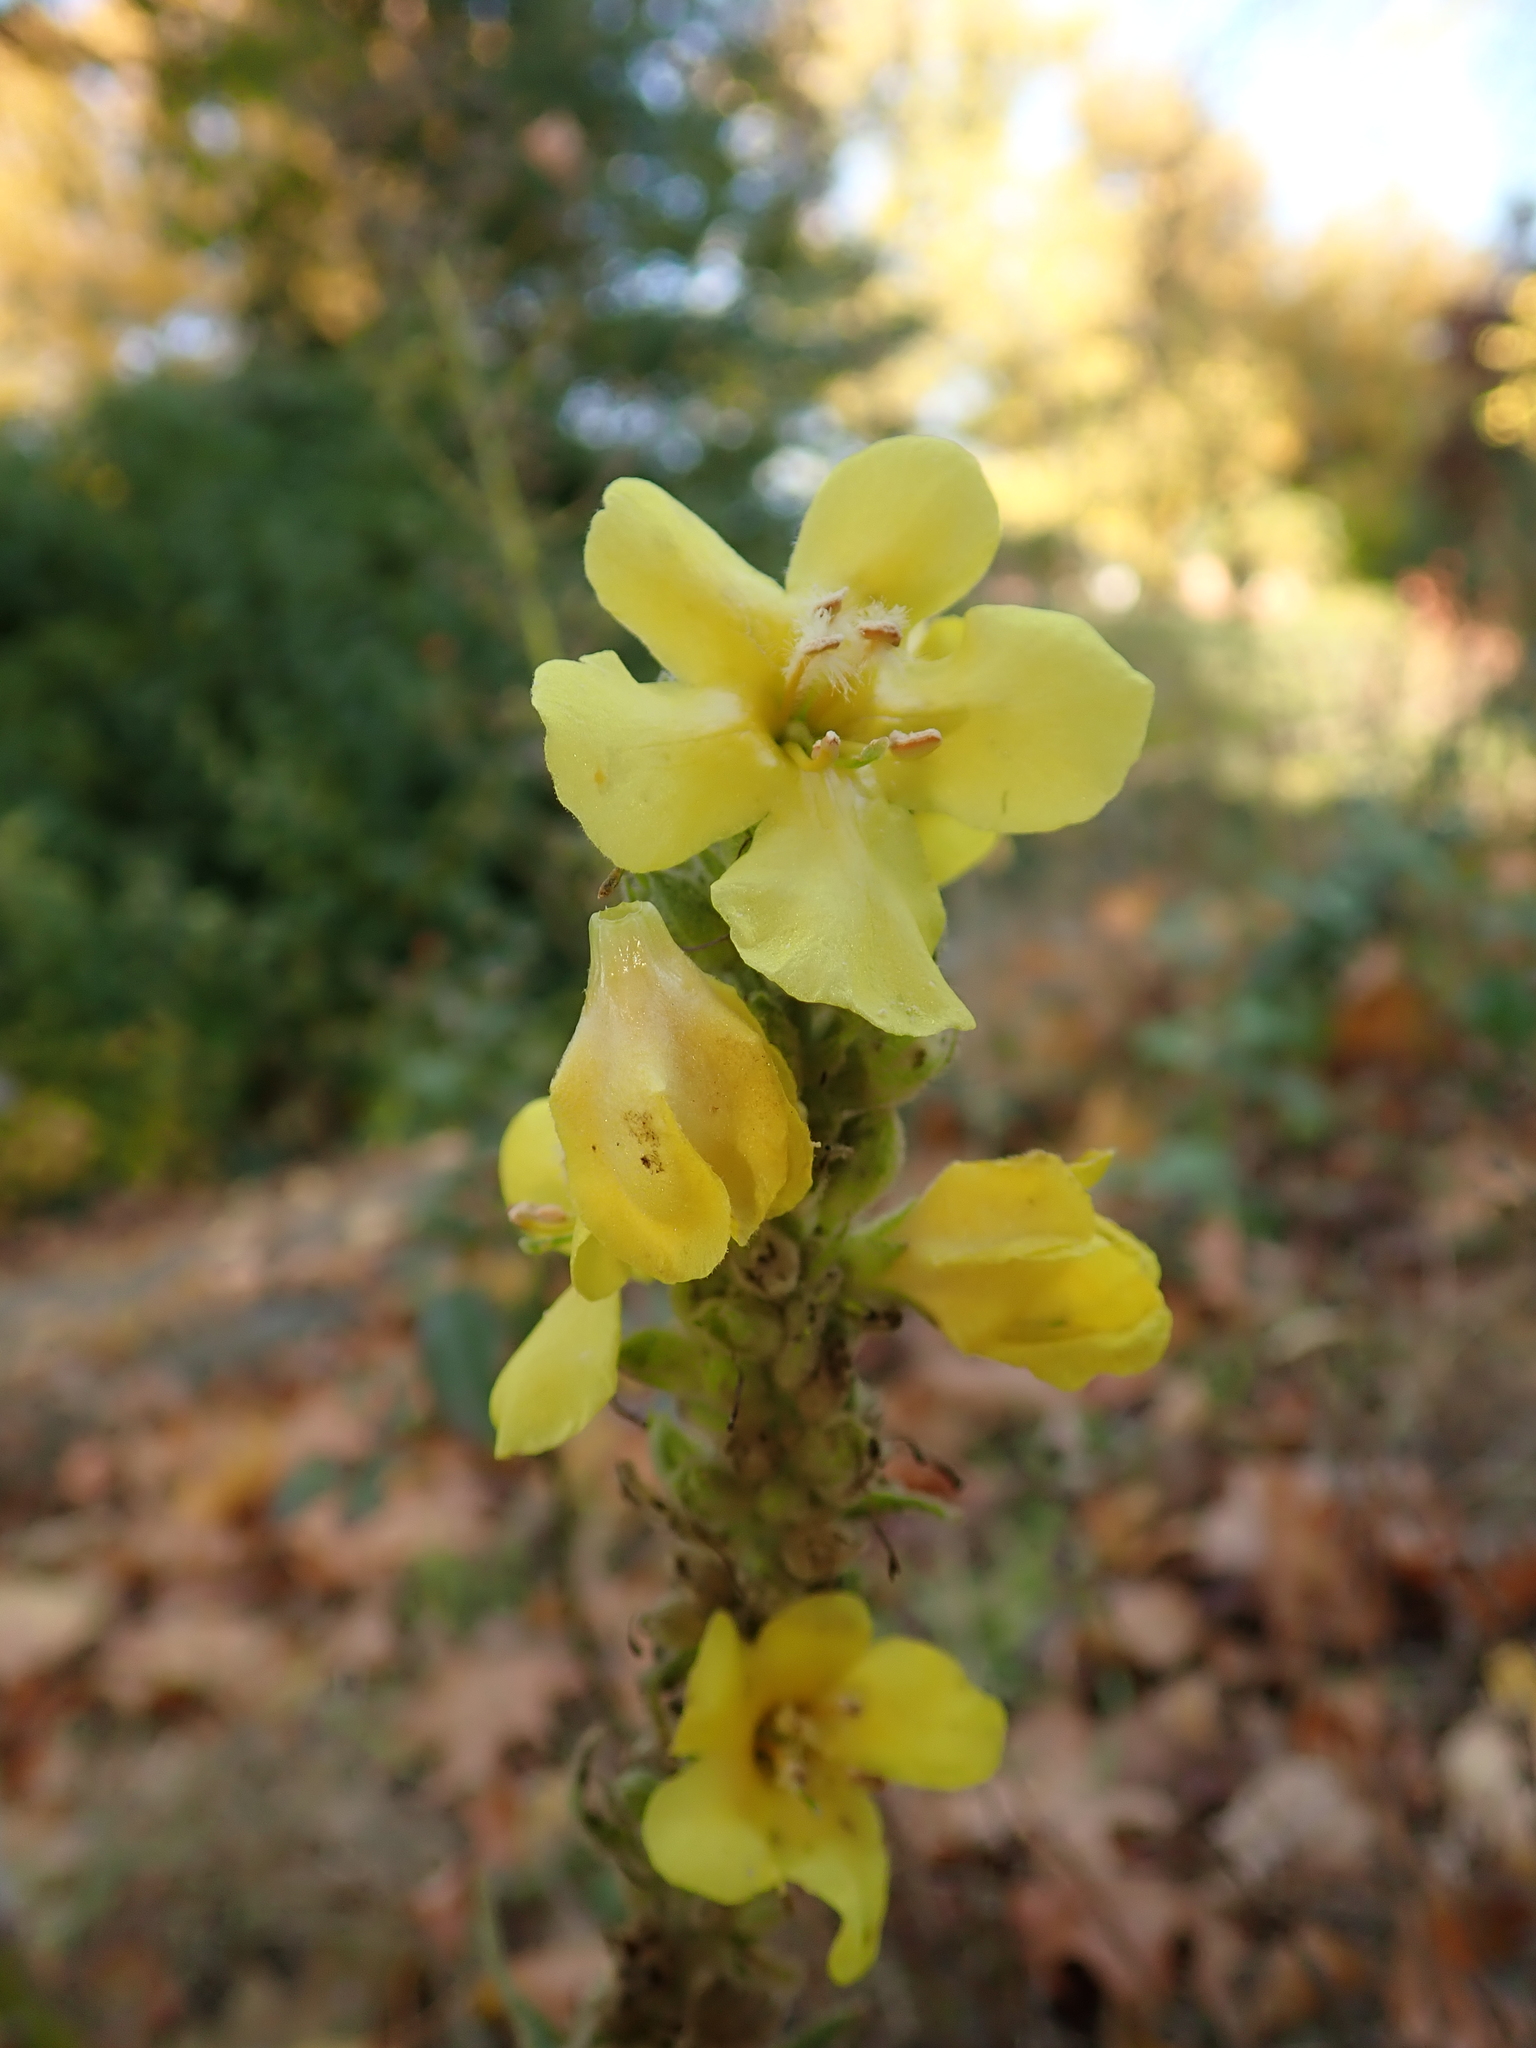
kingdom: Plantae
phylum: Tracheophyta
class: Magnoliopsida
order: Lamiales
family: Scrophulariaceae
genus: Verbascum
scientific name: Verbascum phlomoides
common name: Orange mullein
